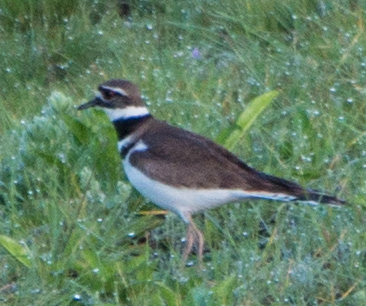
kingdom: Animalia
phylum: Chordata
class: Aves
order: Charadriiformes
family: Charadriidae
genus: Charadrius
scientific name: Charadrius vociferus
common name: Killdeer
